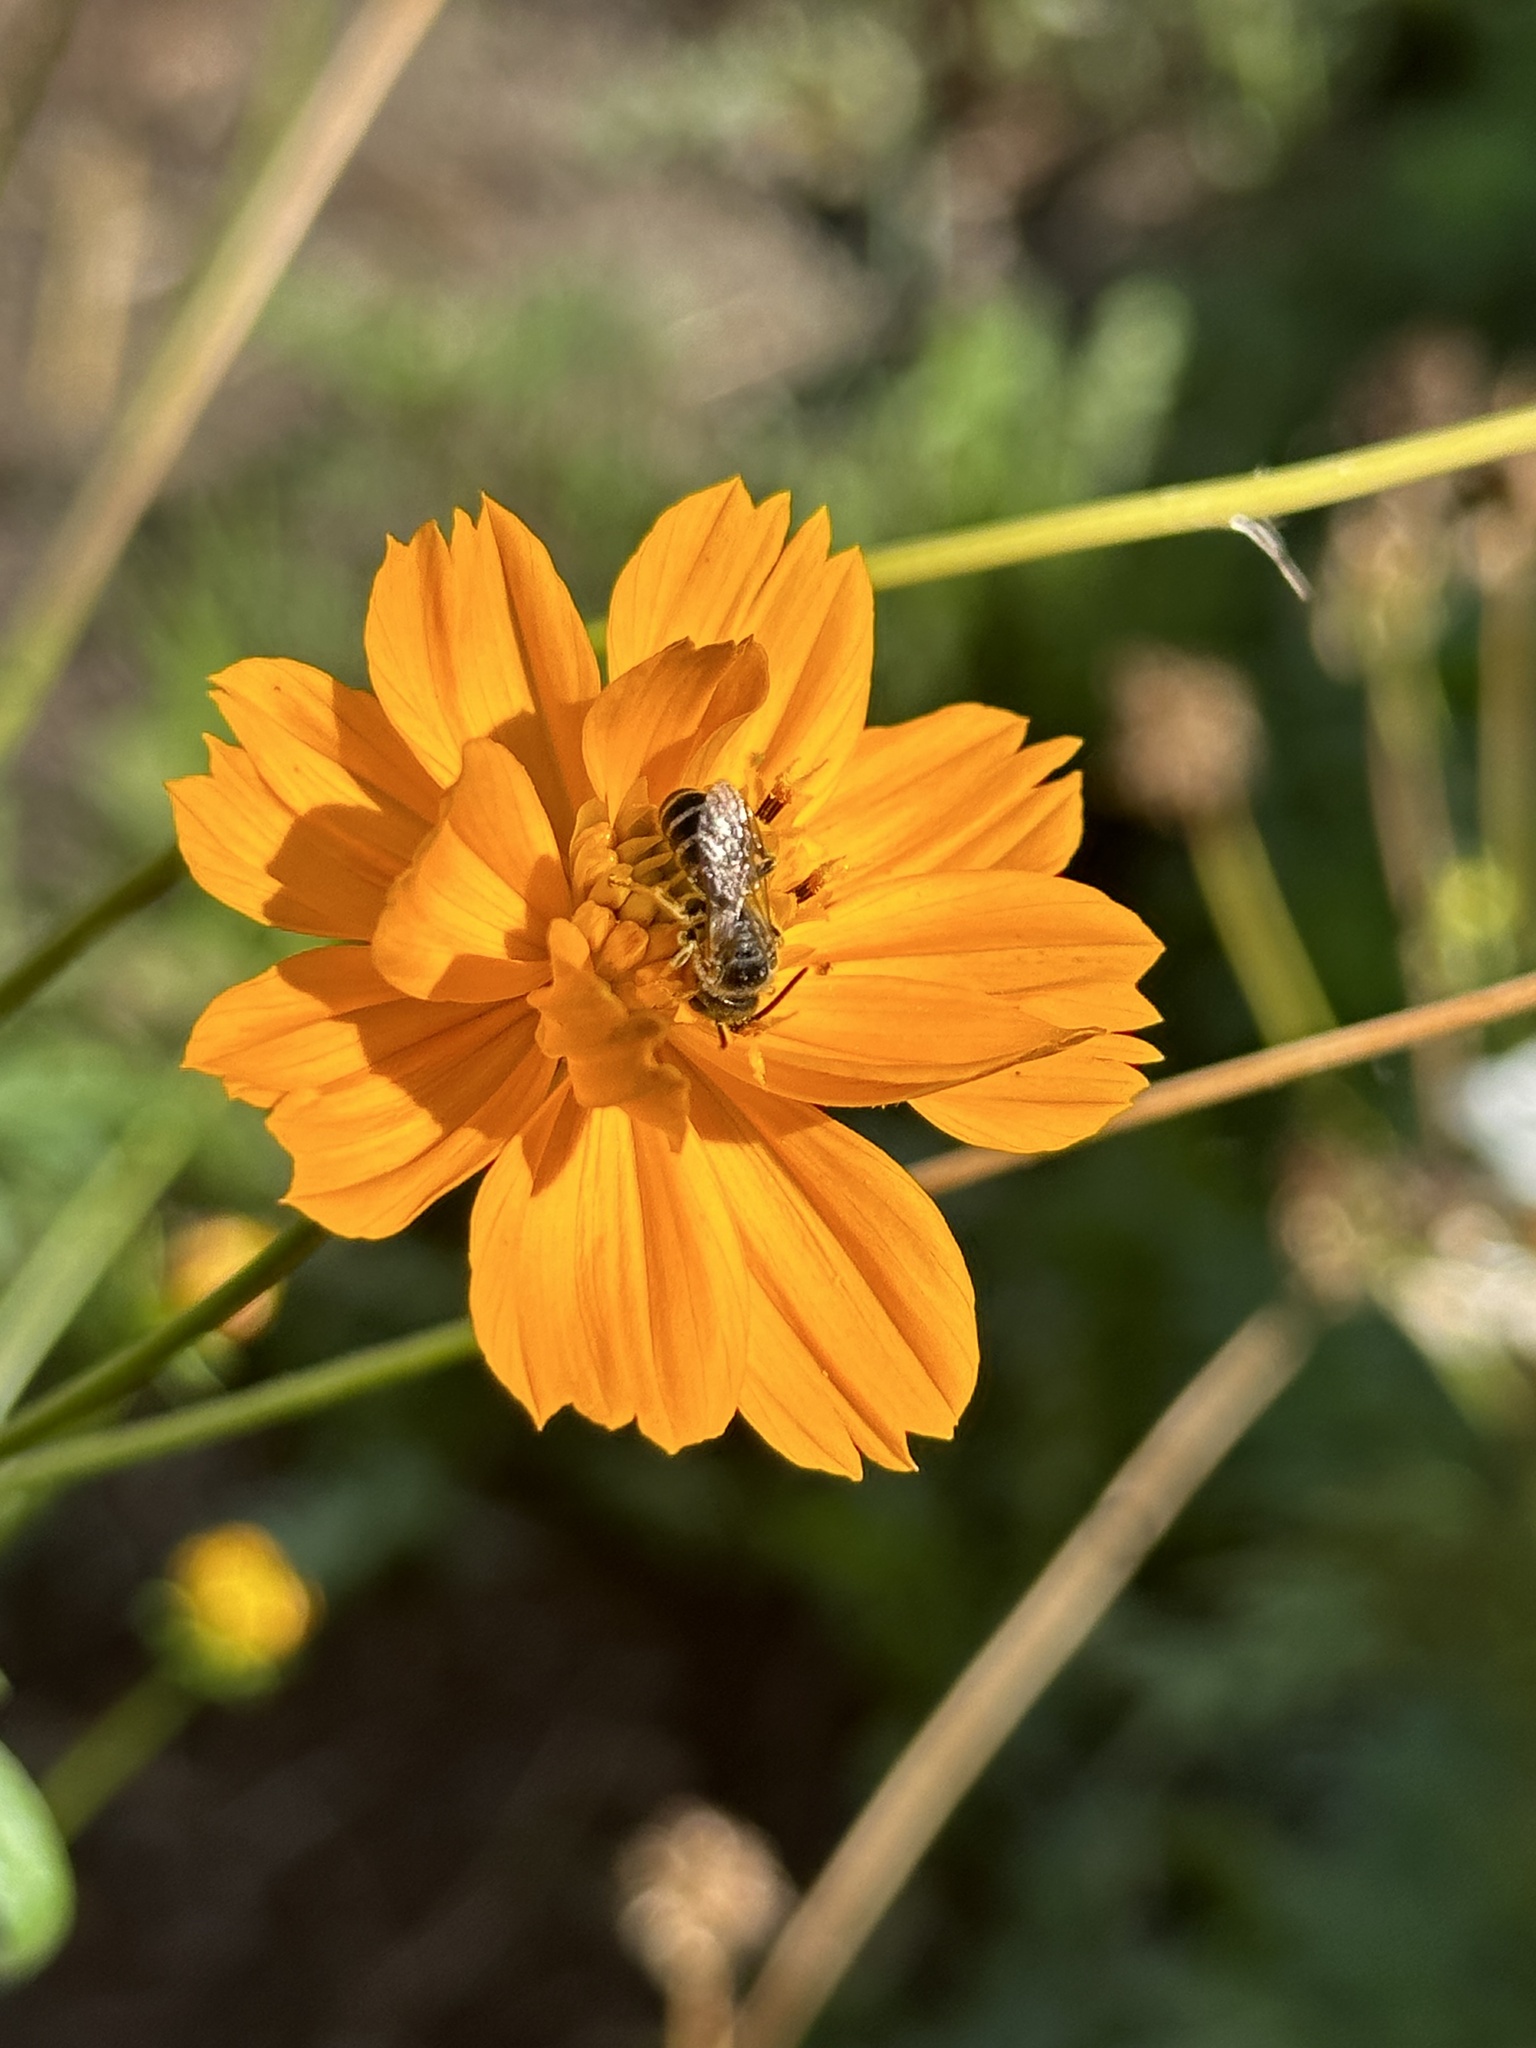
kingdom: Animalia
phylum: Arthropoda
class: Insecta
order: Hymenoptera
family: Halictidae
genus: Halictus
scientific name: Halictus ligatus
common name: Ligated furrow bee
